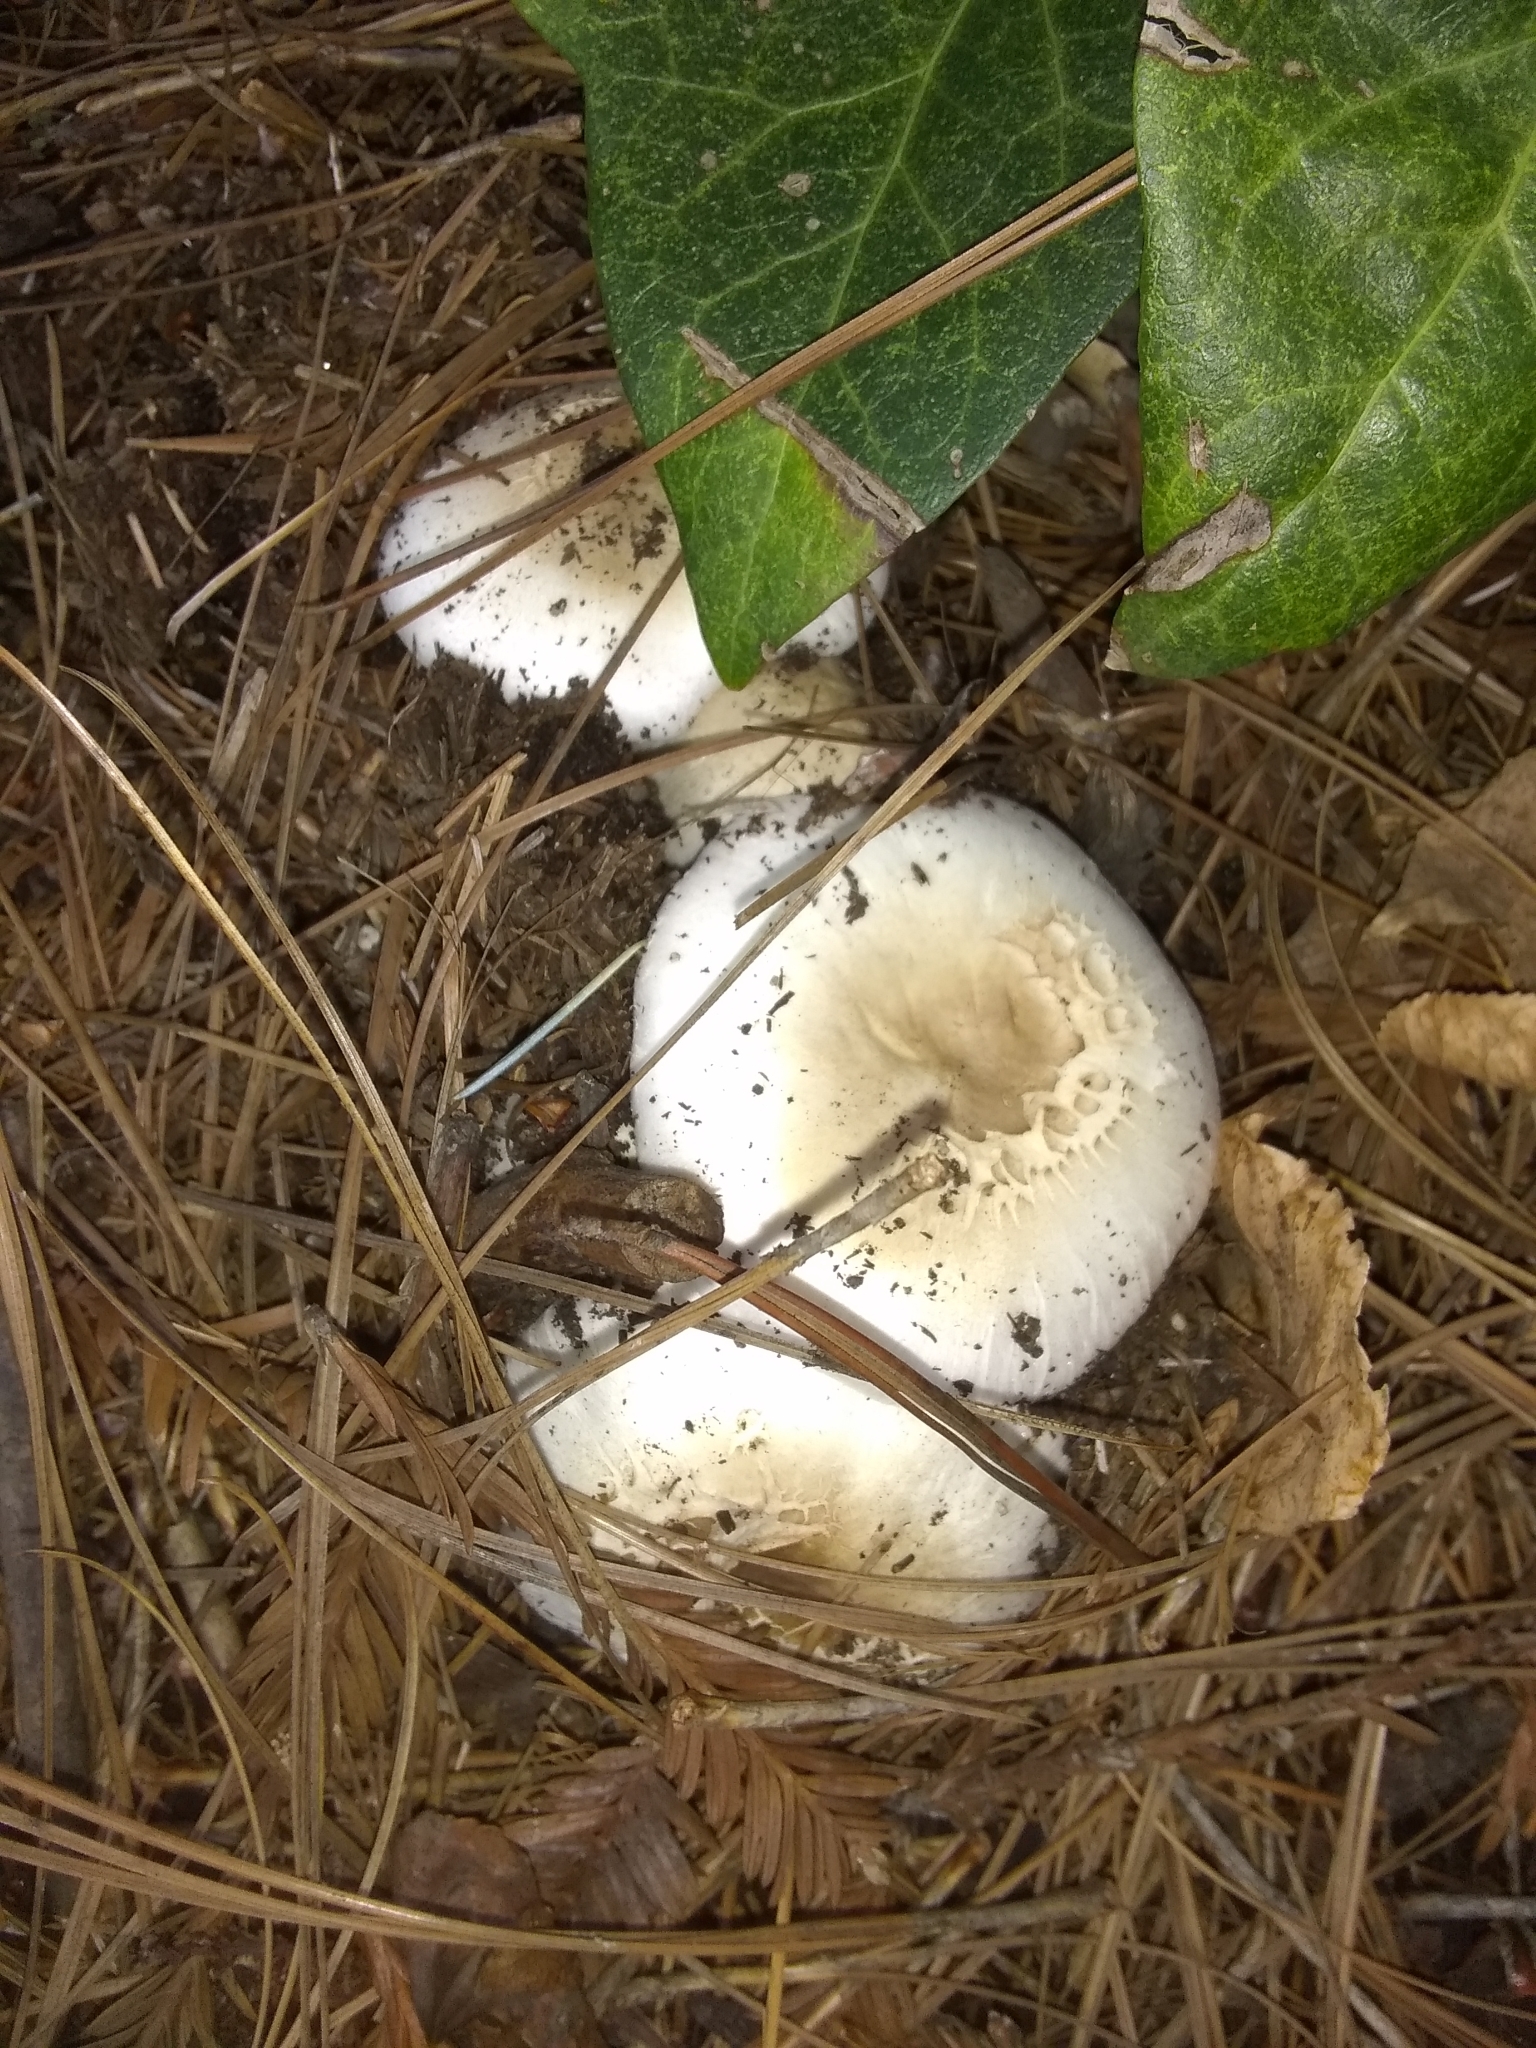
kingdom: Fungi
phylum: Basidiomycota
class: Agaricomycetes
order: Agaricales
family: Agaricaceae
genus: Agaricus
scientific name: Agaricus xanthodermus
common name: Yellow stainer
